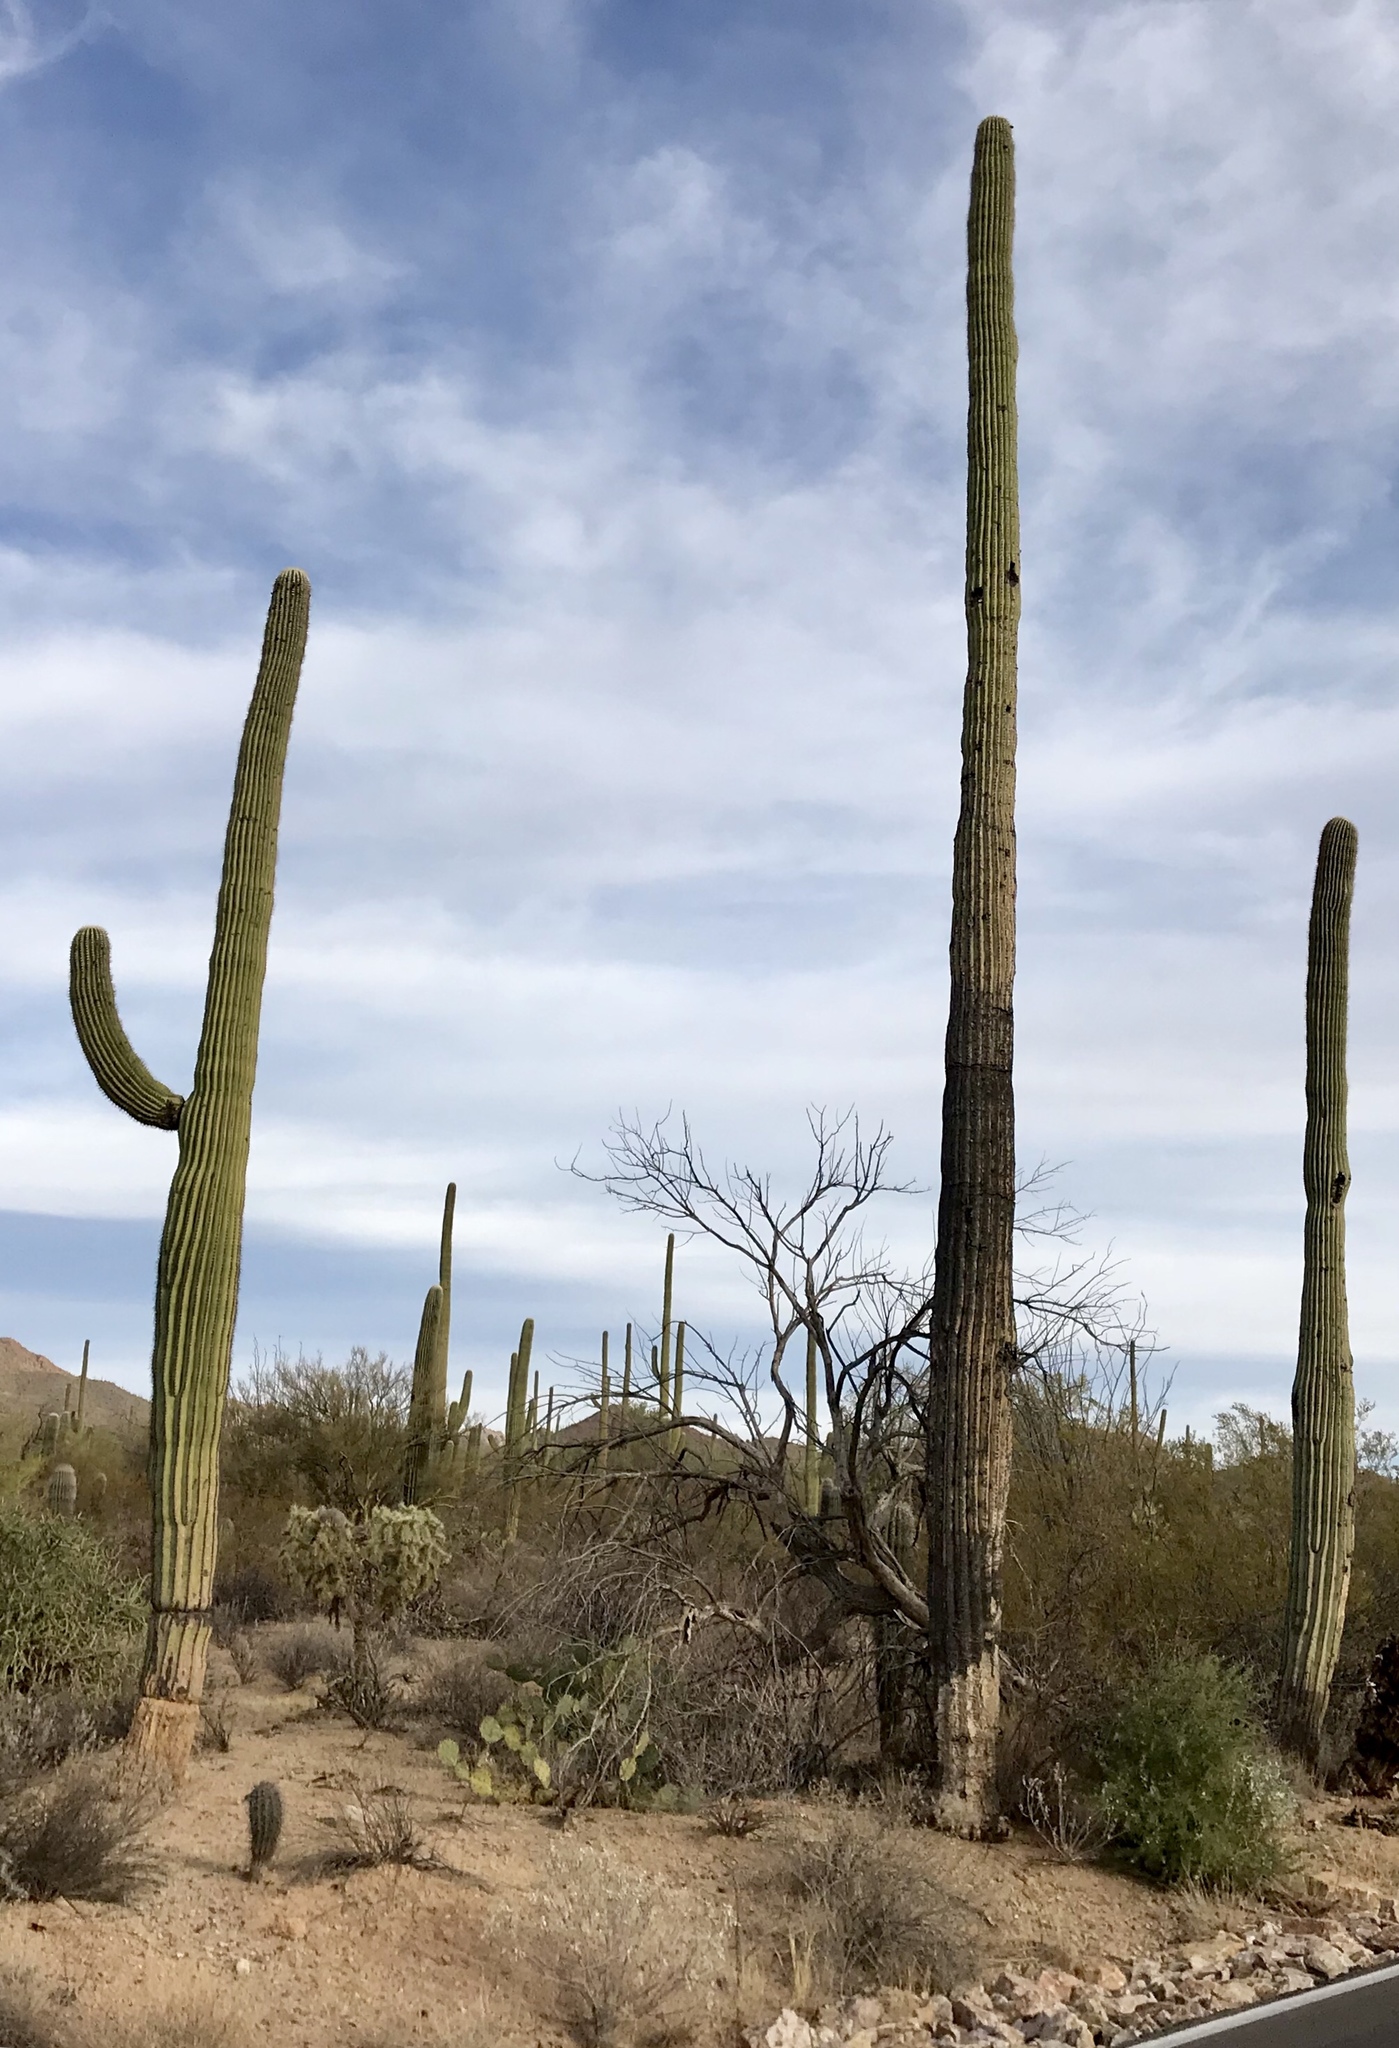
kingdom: Plantae
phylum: Tracheophyta
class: Magnoliopsida
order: Caryophyllales
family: Cactaceae
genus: Carnegiea
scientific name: Carnegiea gigantea
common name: Saguaro
